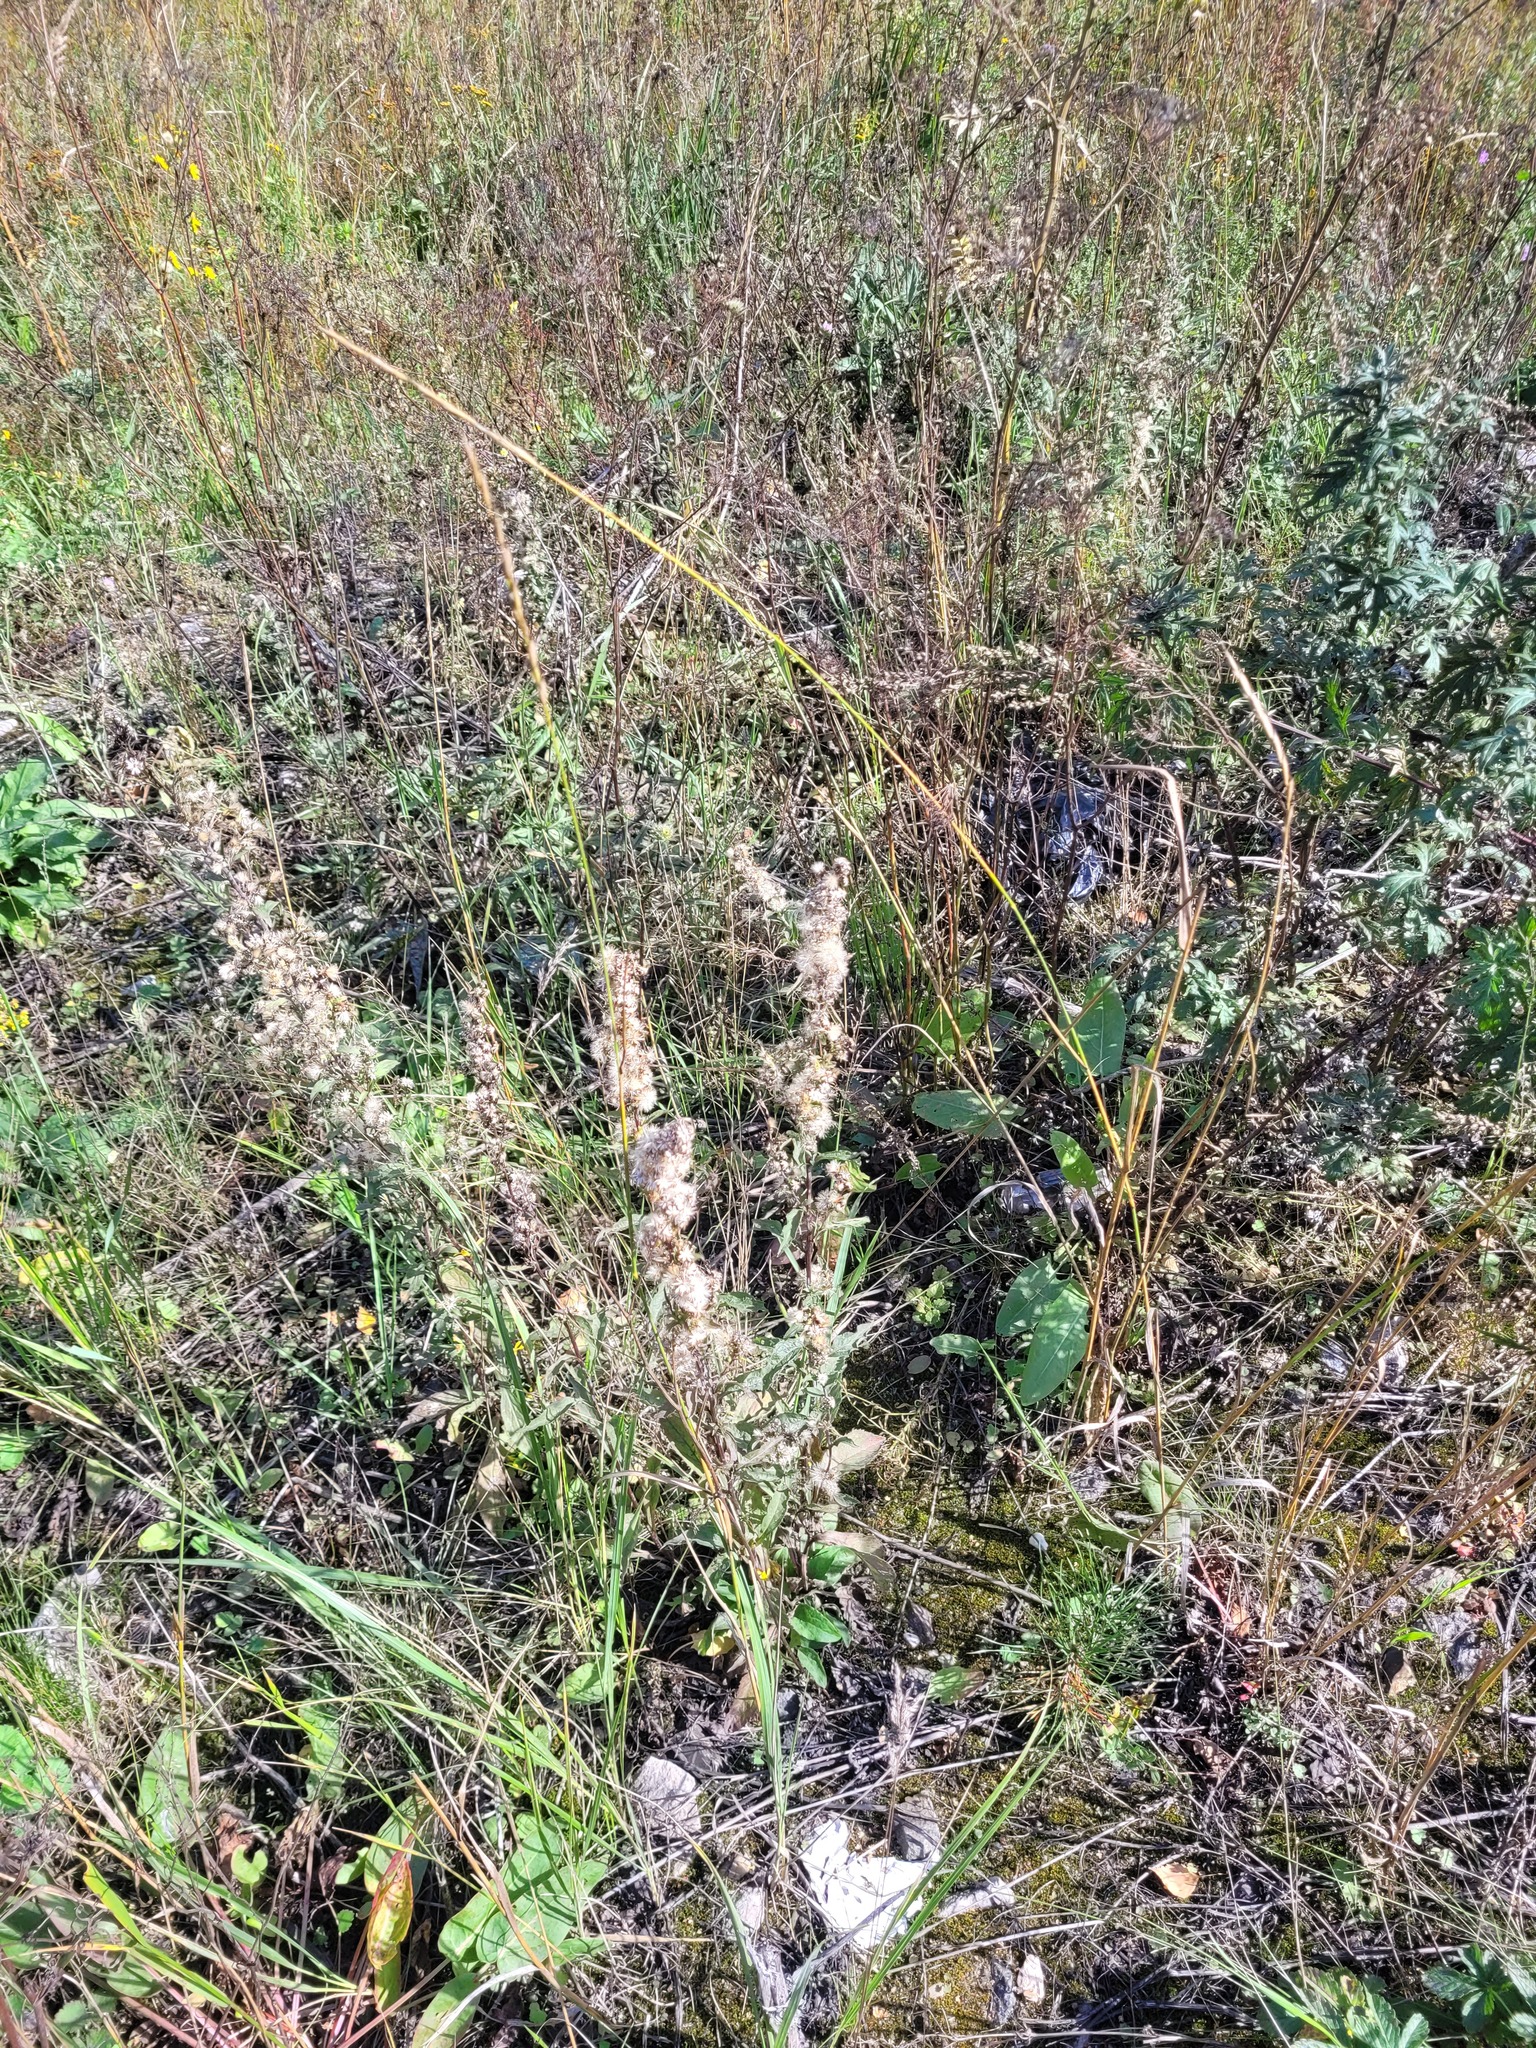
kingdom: Plantae
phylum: Tracheophyta
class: Magnoliopsida
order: Asterales
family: Asteraceae
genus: Solidago
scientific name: Solidago virgaurea
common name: Goldenrod
